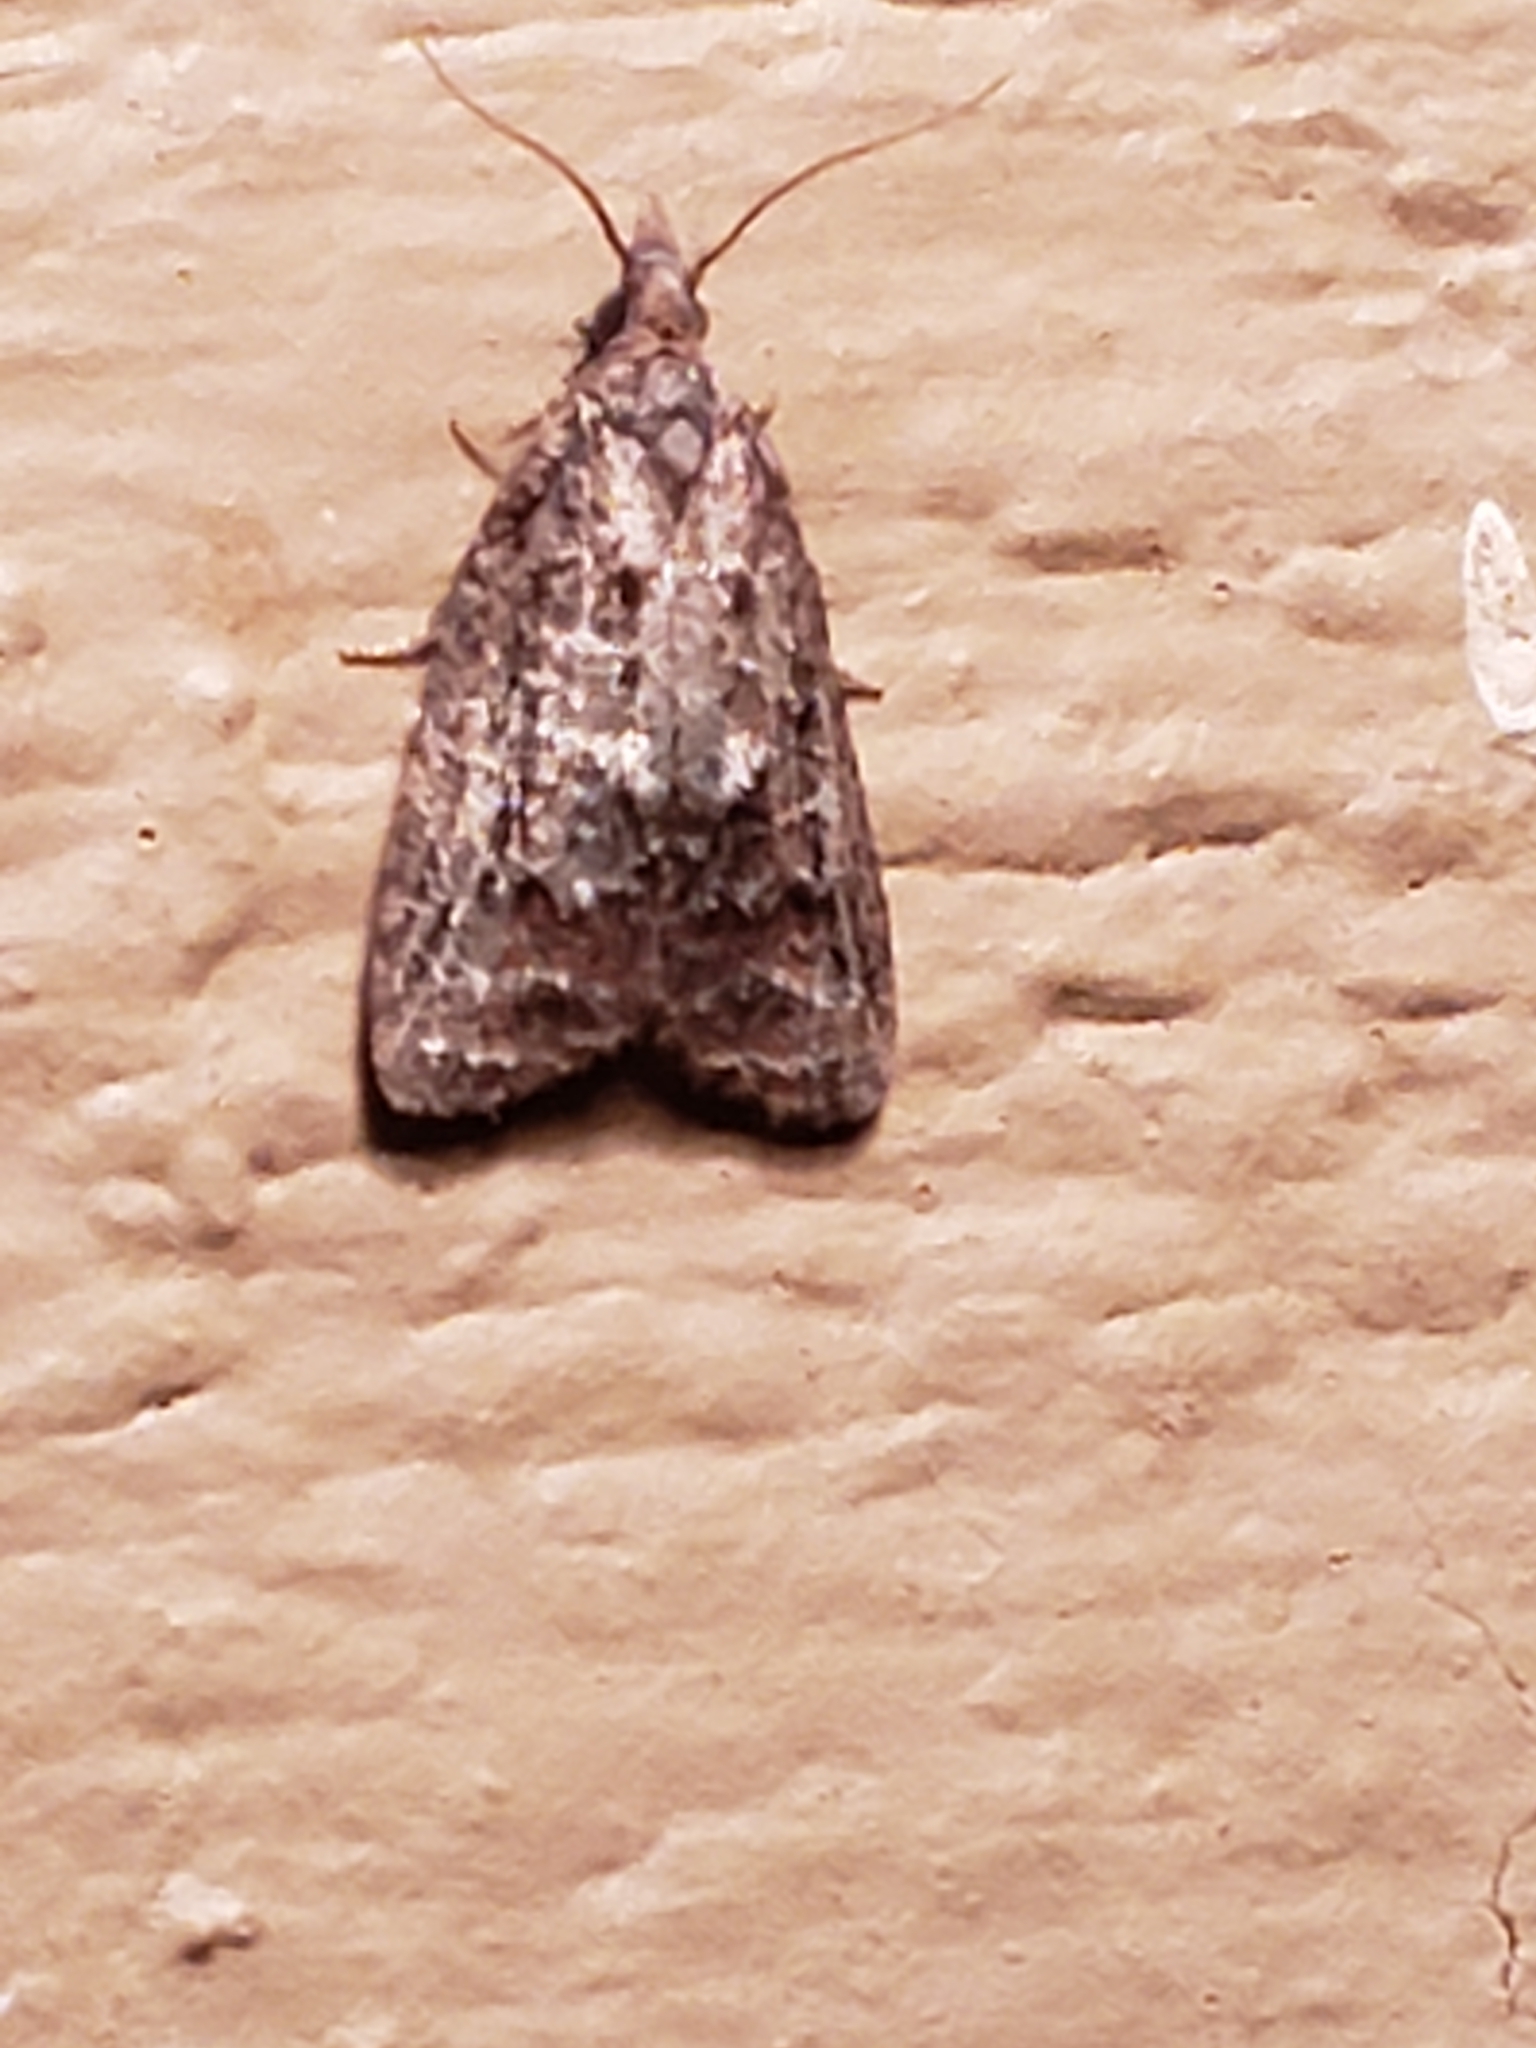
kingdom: Animalia
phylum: Arthropoda
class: Insecta
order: Lepidoptera
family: Tortricidae
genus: Platynota
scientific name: Platynota idaeusalis
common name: Tufted apple bud moth
